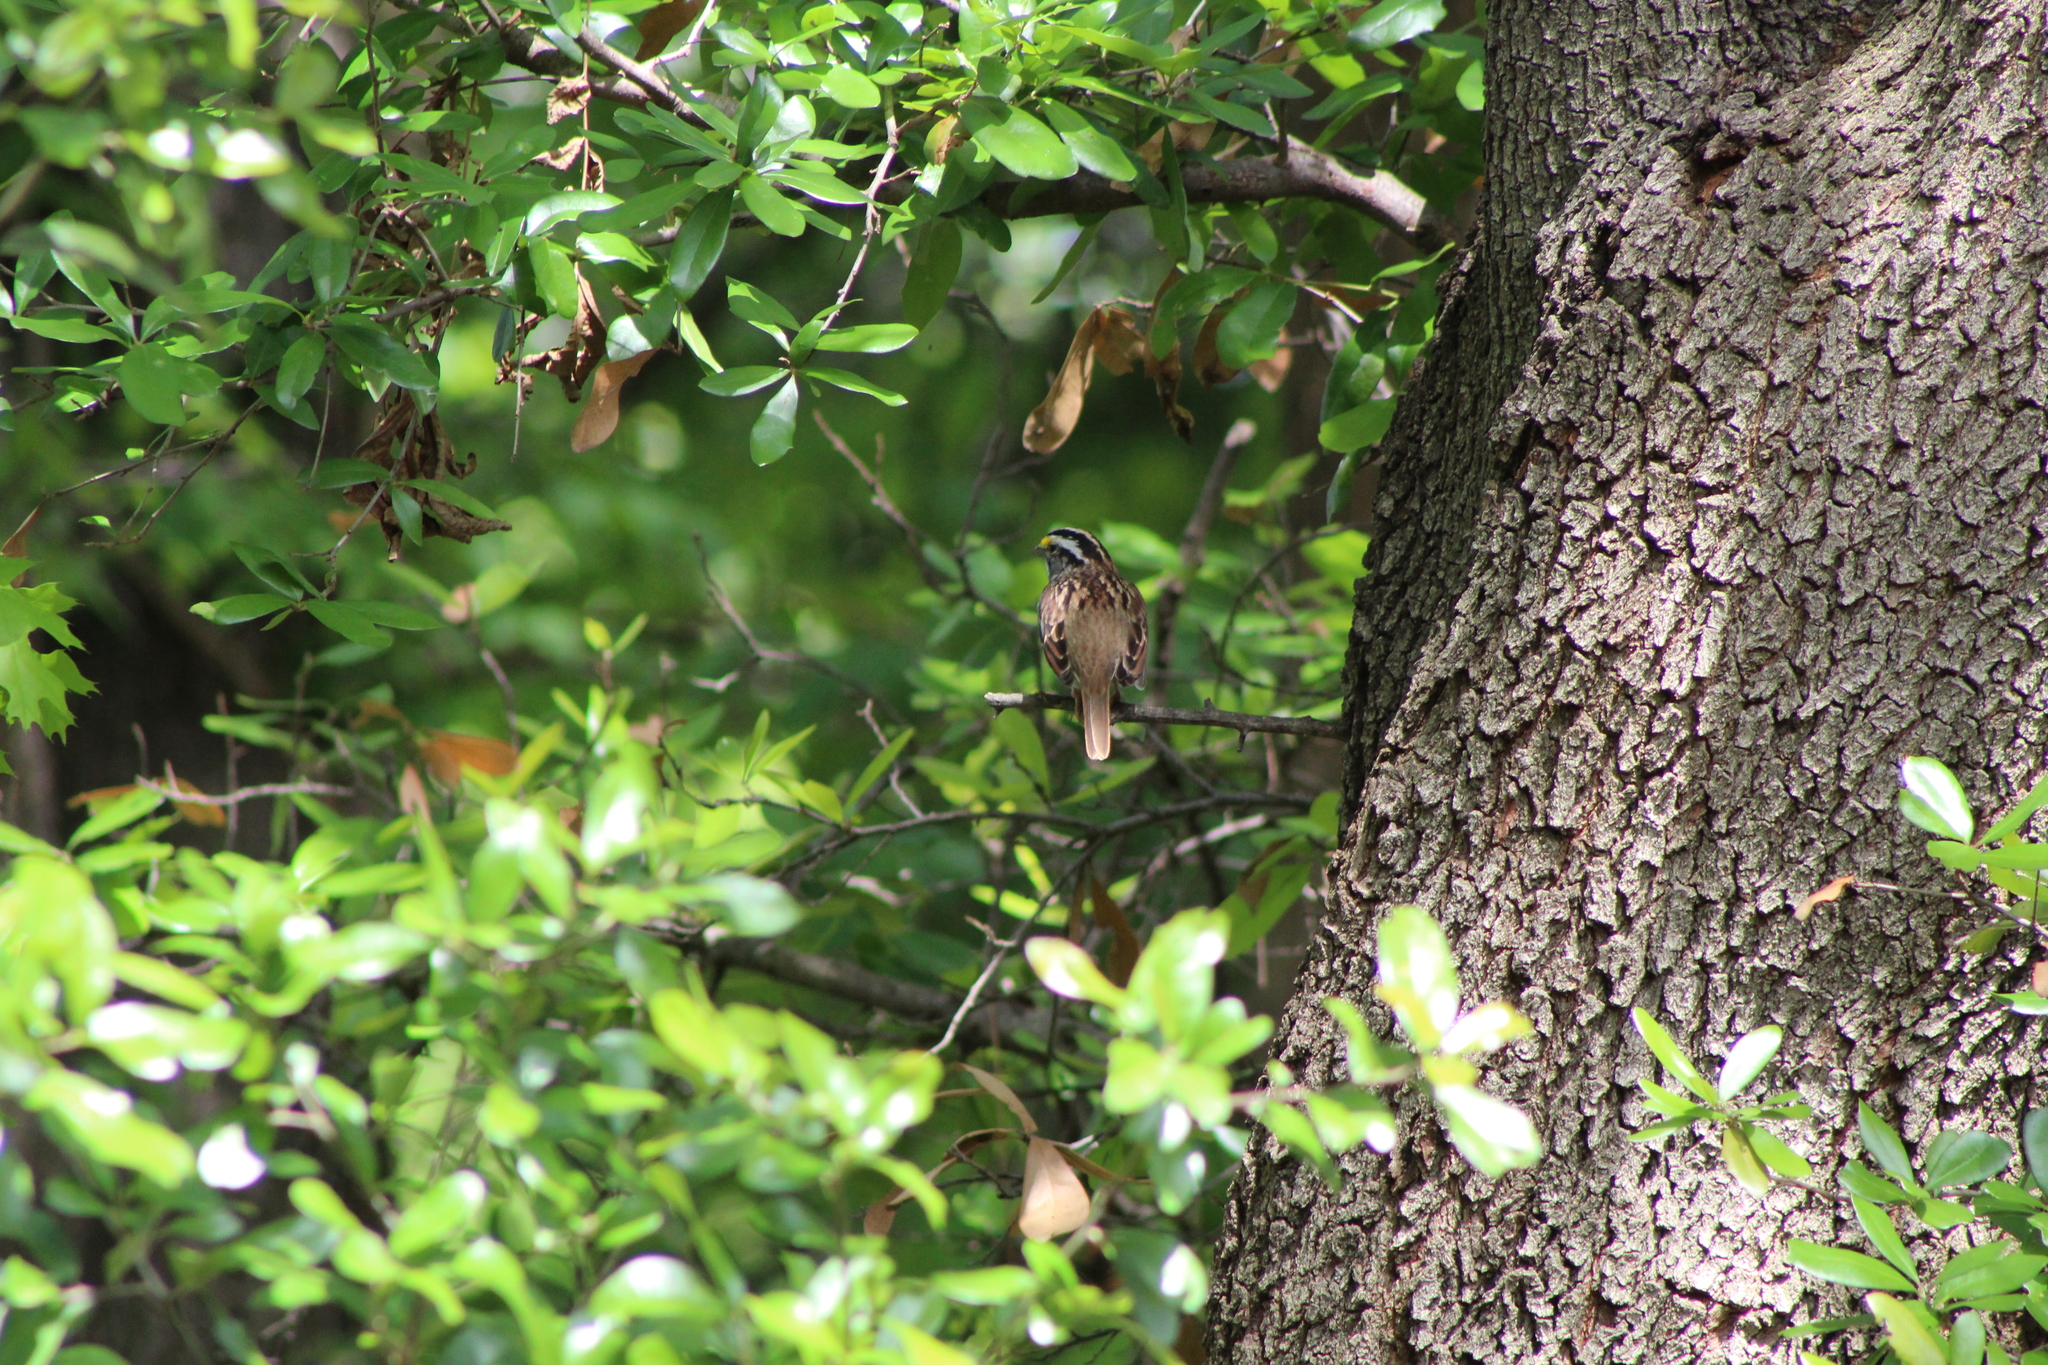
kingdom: Animalia
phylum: Chordata
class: Aves
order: Passeriformes
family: Passerellidae
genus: Zonotrichia
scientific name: Zonotrichia albicollis
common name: White-throated sparrow
